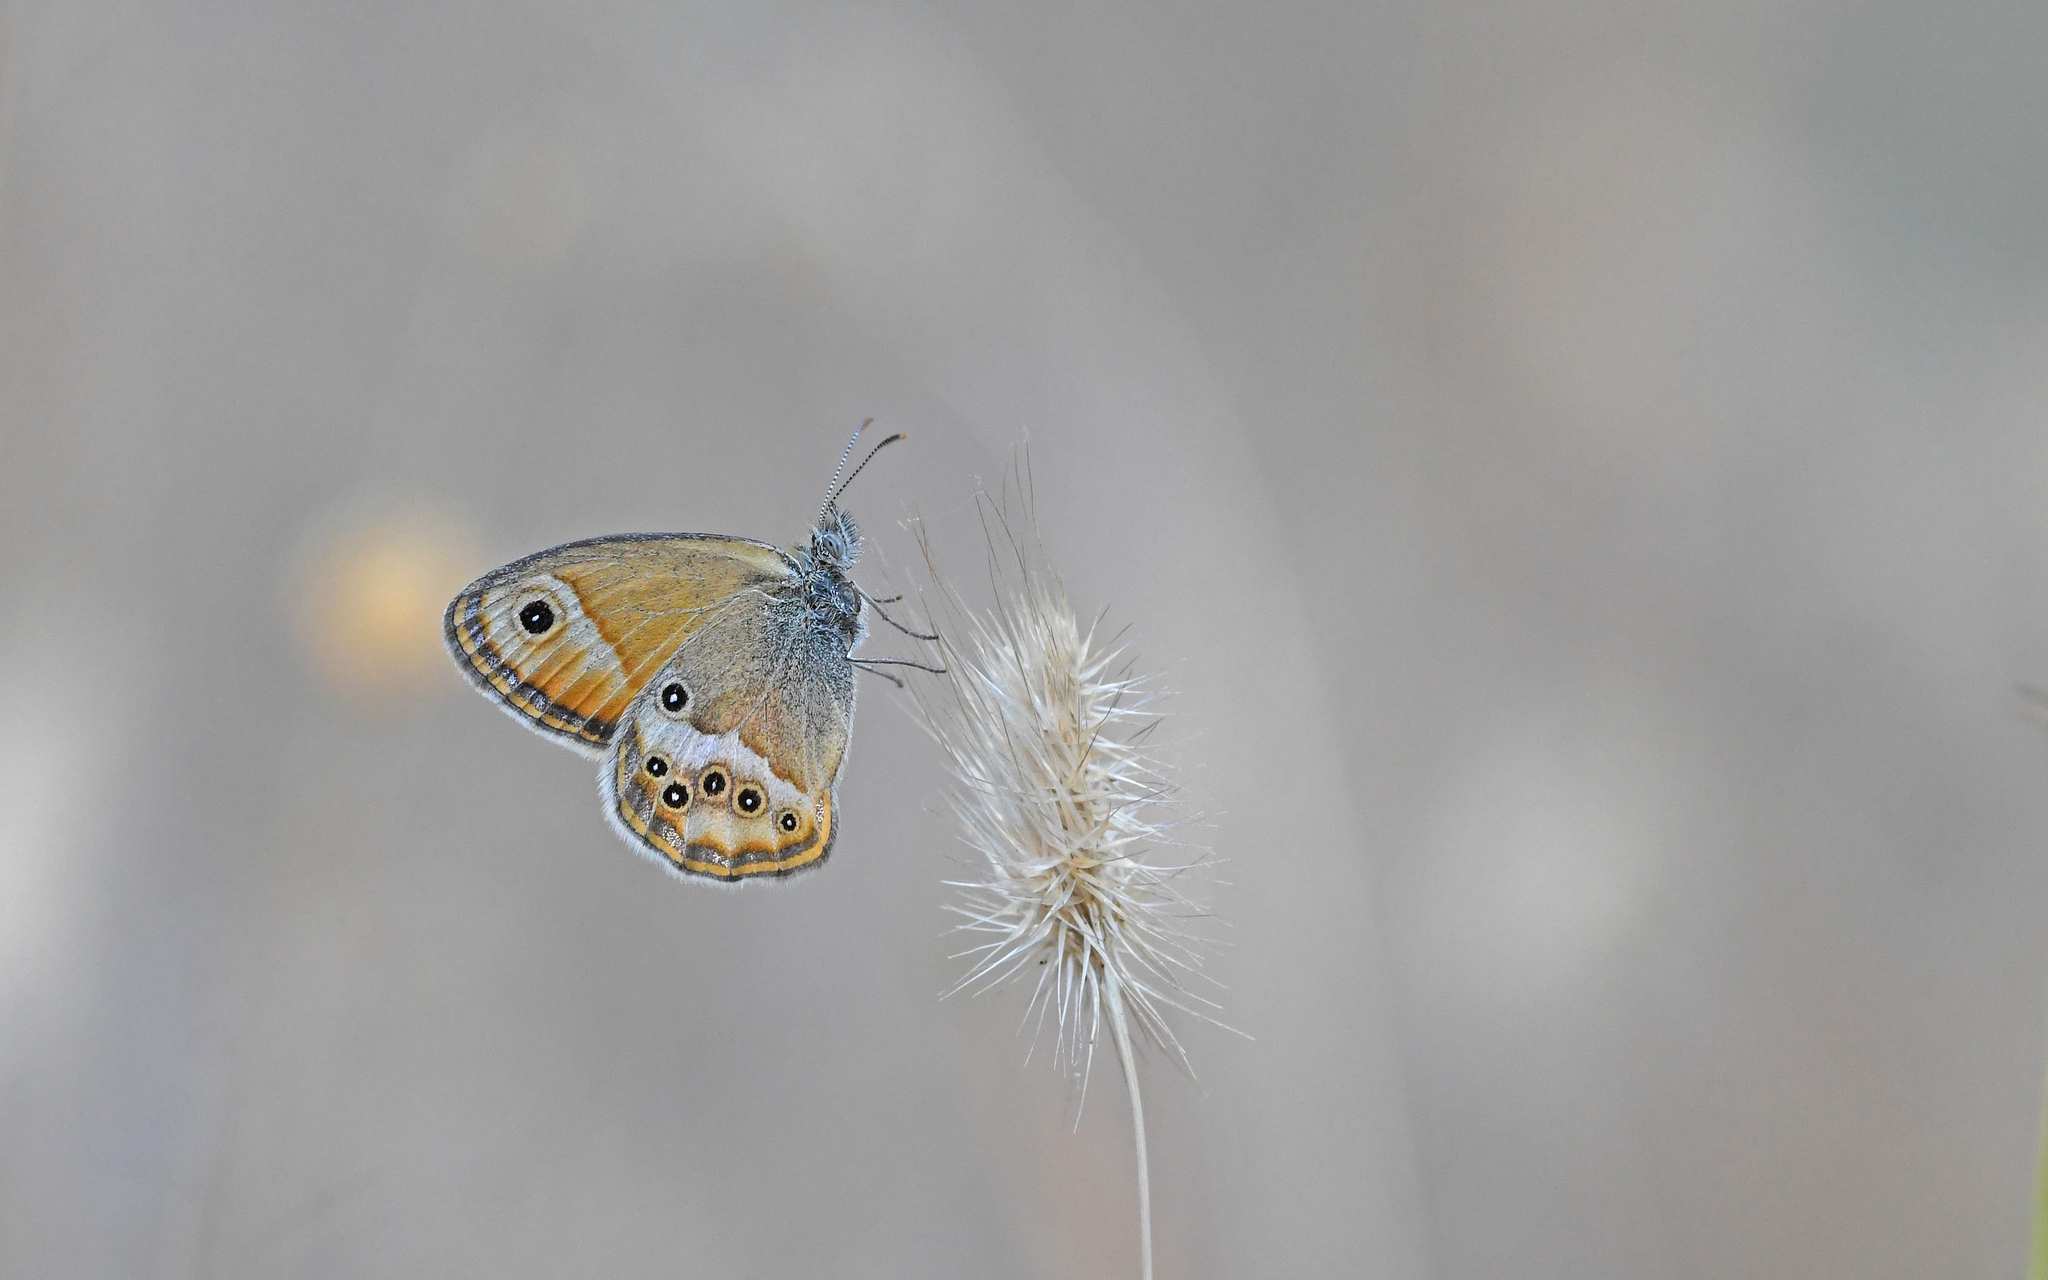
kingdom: Animalia
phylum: Arthropoda
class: Insecta
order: Lepidoptera
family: Nymphalidae
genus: Coenonympha
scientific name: Coenonympha dorus
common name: Dusky heath
